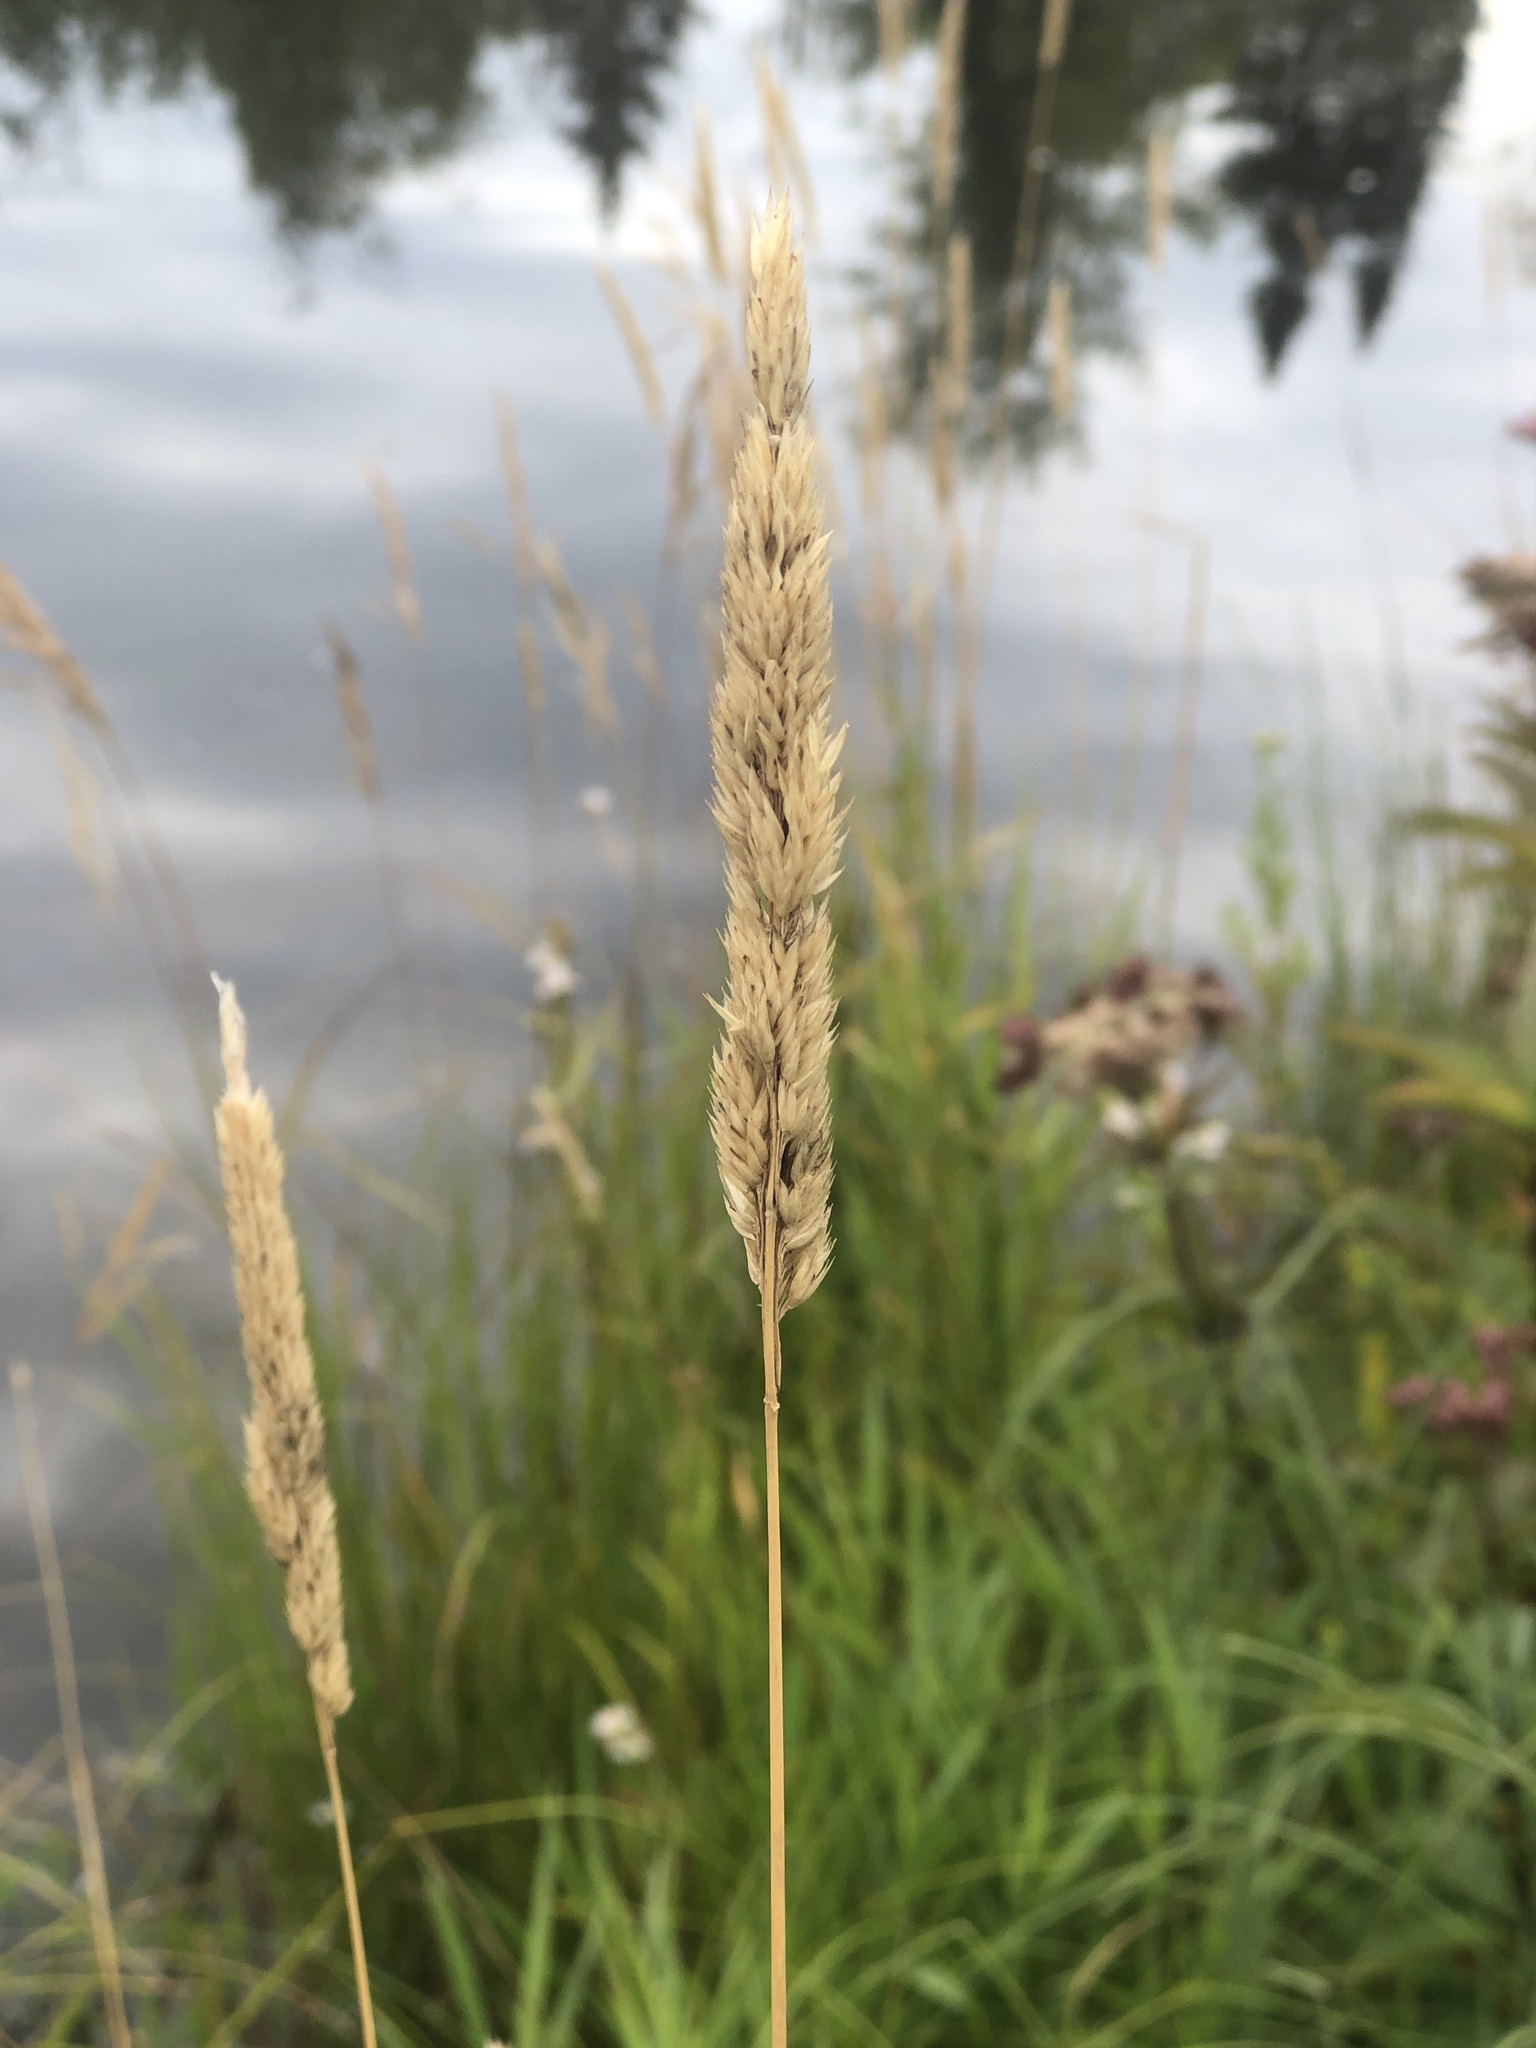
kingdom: Plantae
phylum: Tracheophyta
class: Liliopsida
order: Poales
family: Poaceae
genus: Phalaris
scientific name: Phalaris arundinacea
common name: Reed canary-grass
